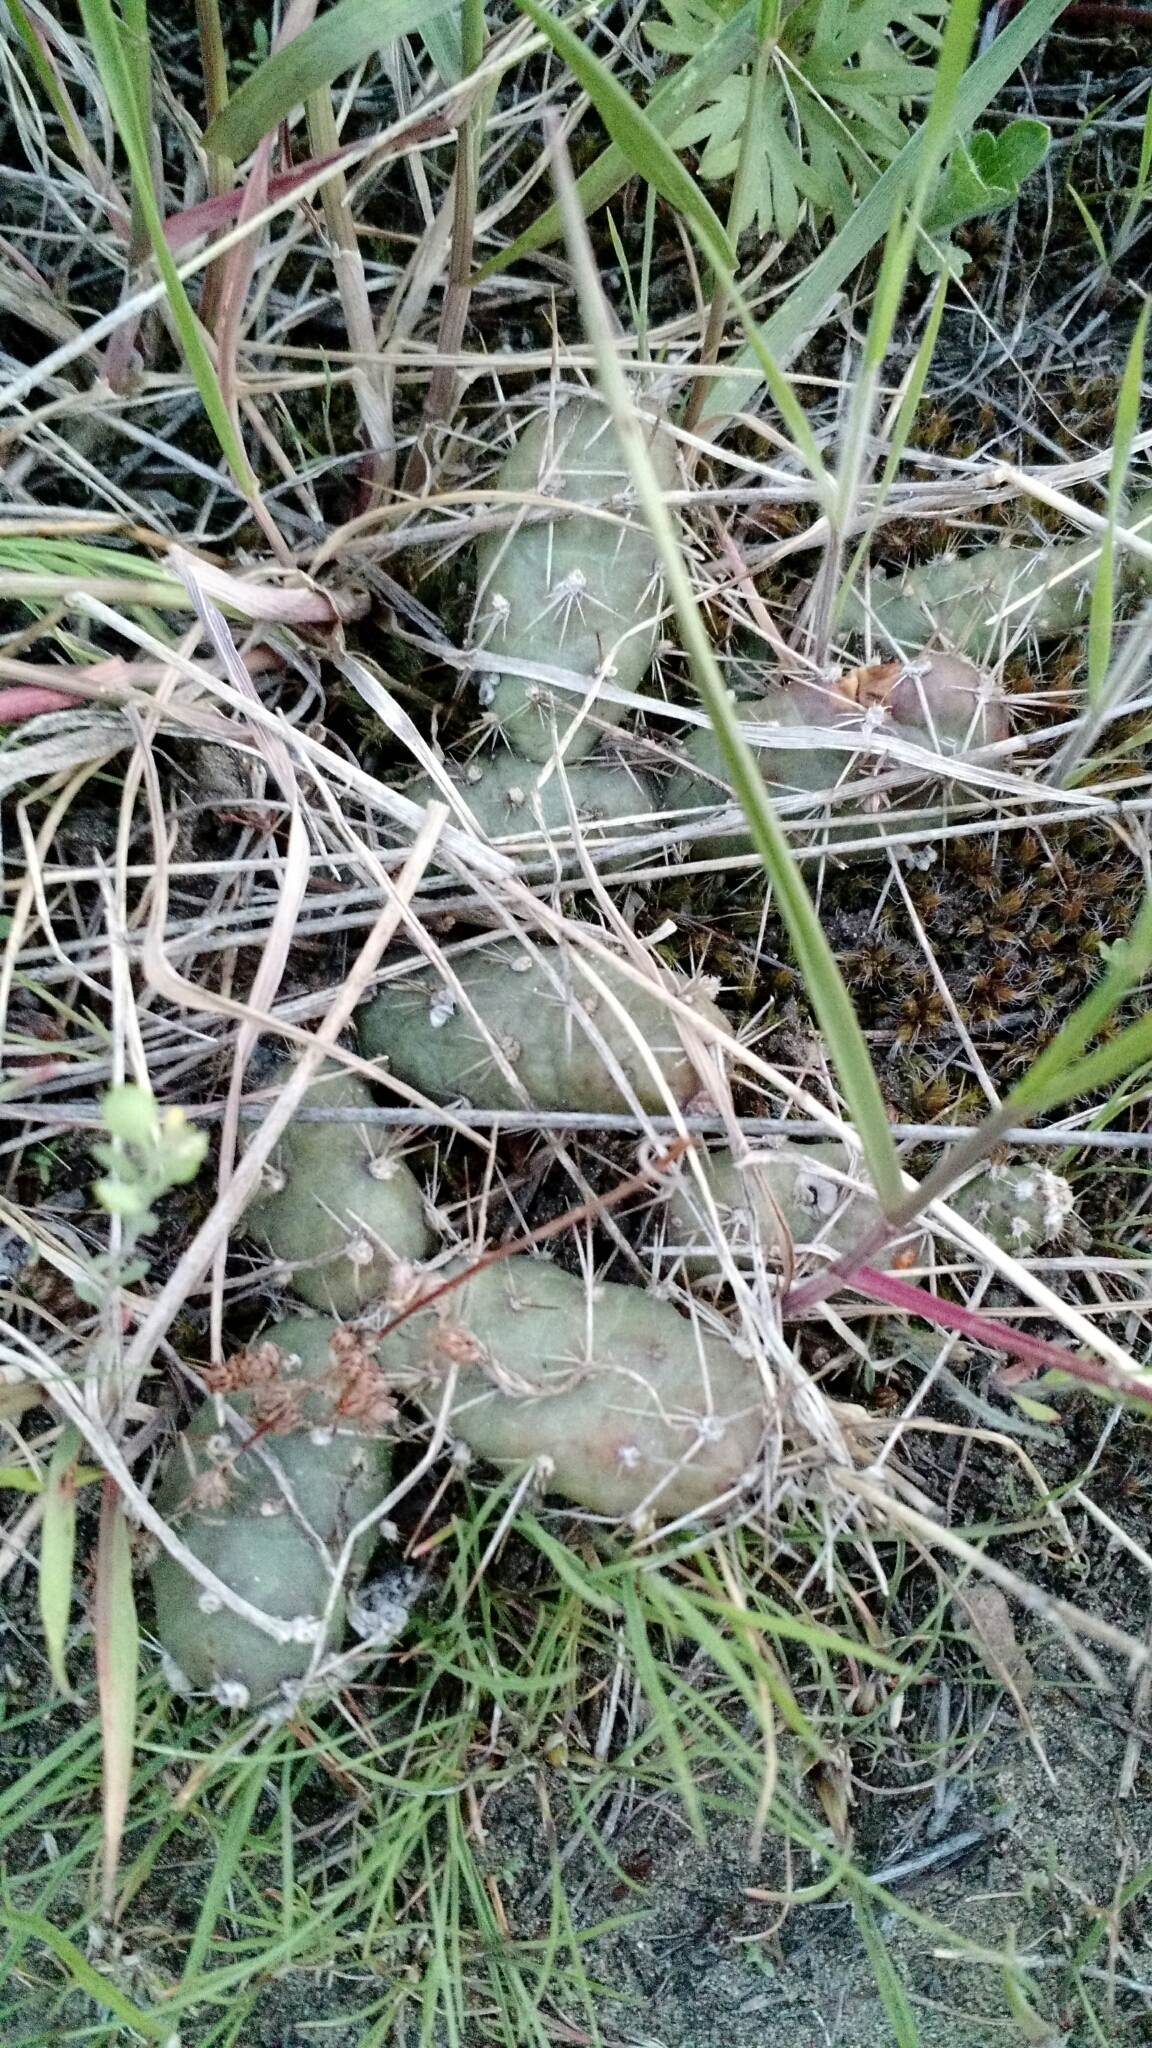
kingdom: Plantae
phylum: Tracheophyta
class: Magnoliopsida
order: Caryophyllales
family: Cactaceae
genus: Opuntia
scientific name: Opuntia fragilis
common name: Brittle cactus
